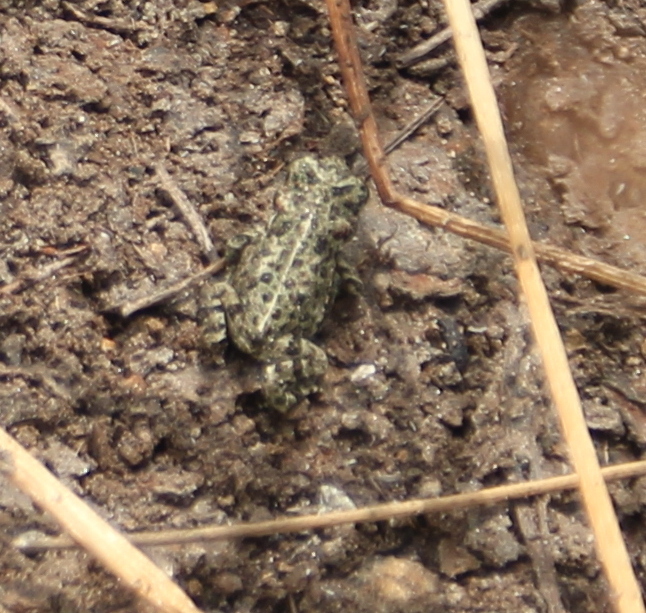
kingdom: Animalia
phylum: Chordata
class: Amphibia
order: Anura
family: Bufonidae
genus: Anaxyrus
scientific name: Anaxyrus boreas
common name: Western toad
